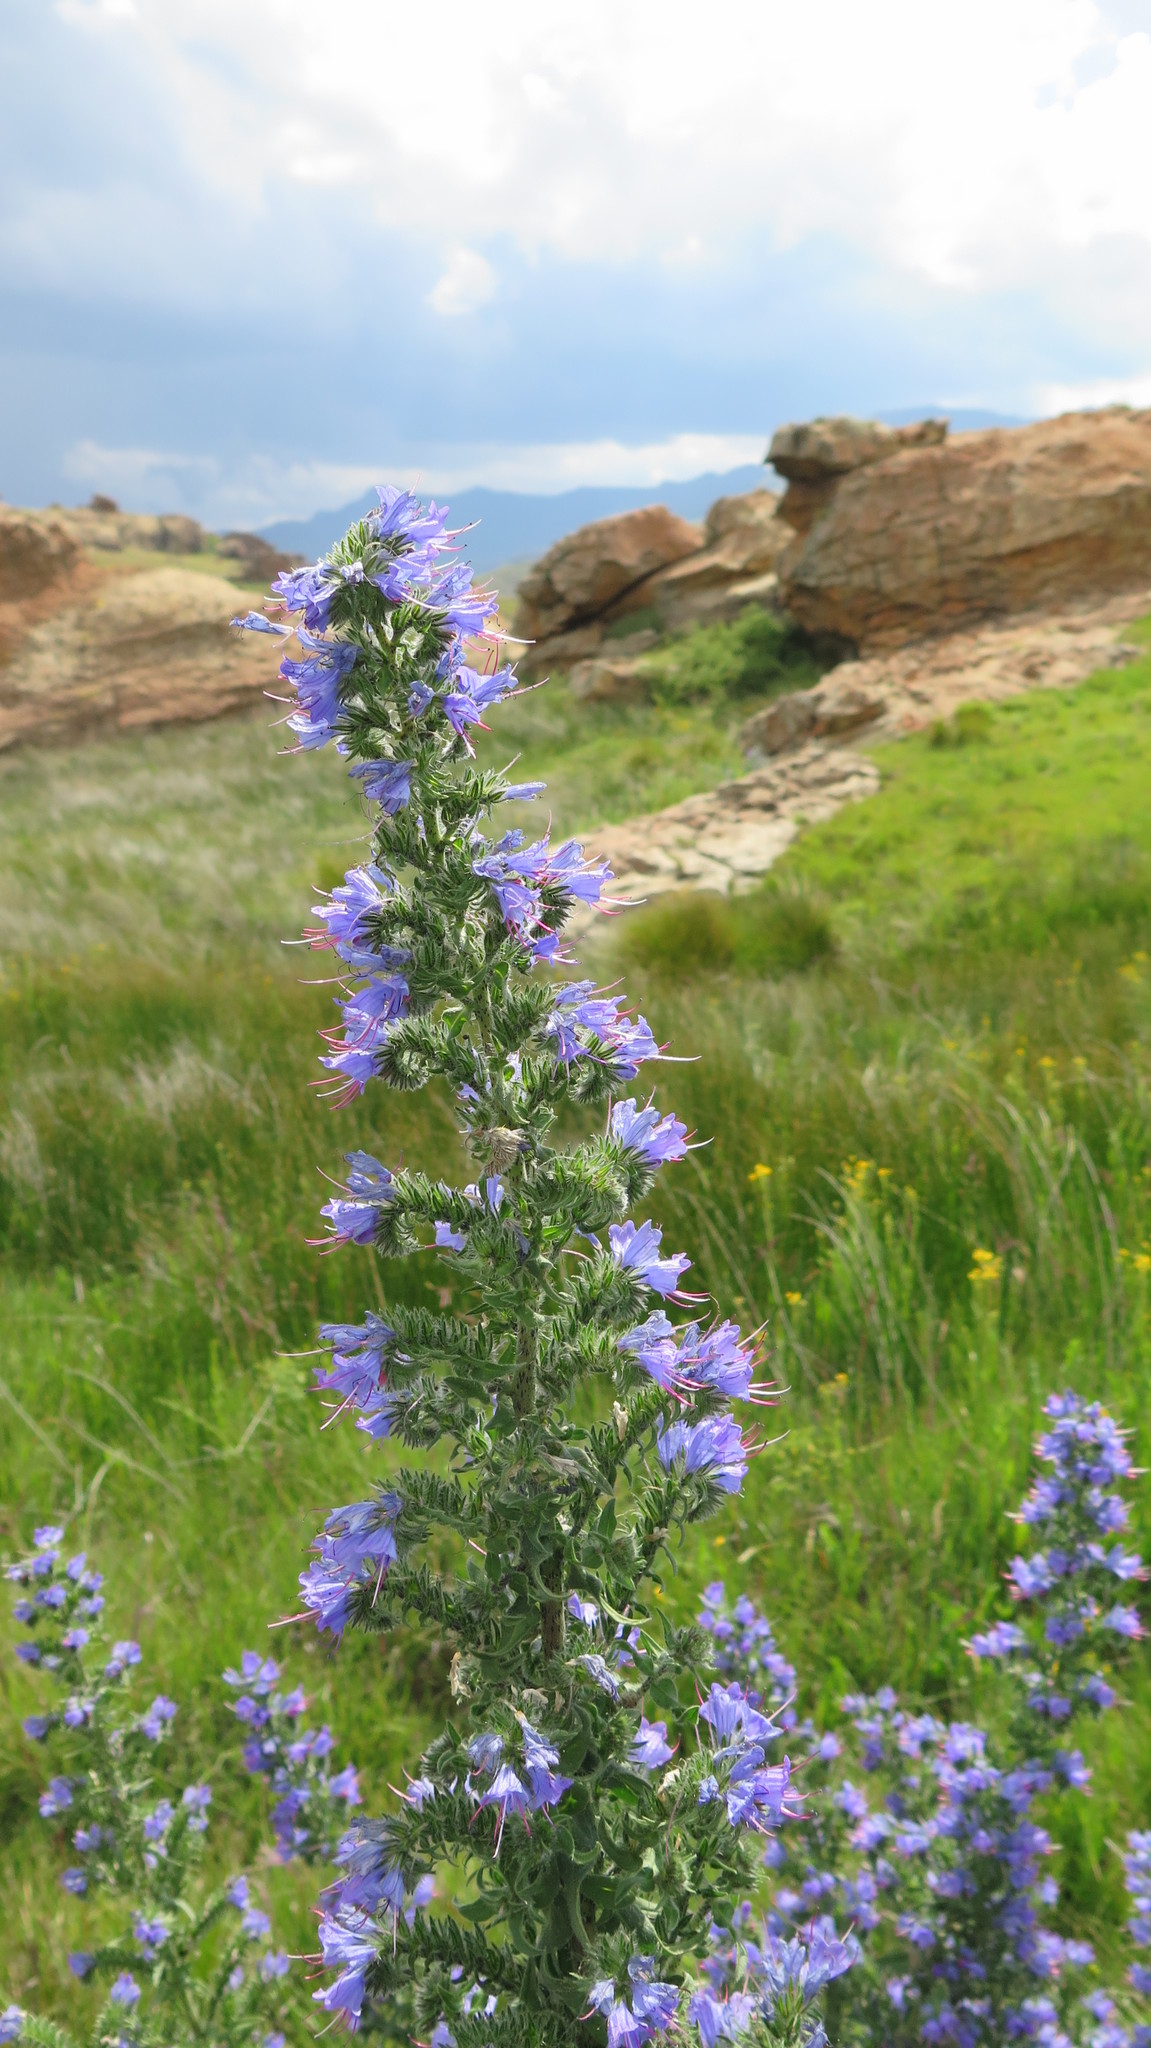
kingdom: Plantae
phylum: Tracheophyta
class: Magnoliopsida
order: Boraginales
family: Boraginaceae
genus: Echium
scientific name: Echium vulgare
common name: Common viper's bugloss
